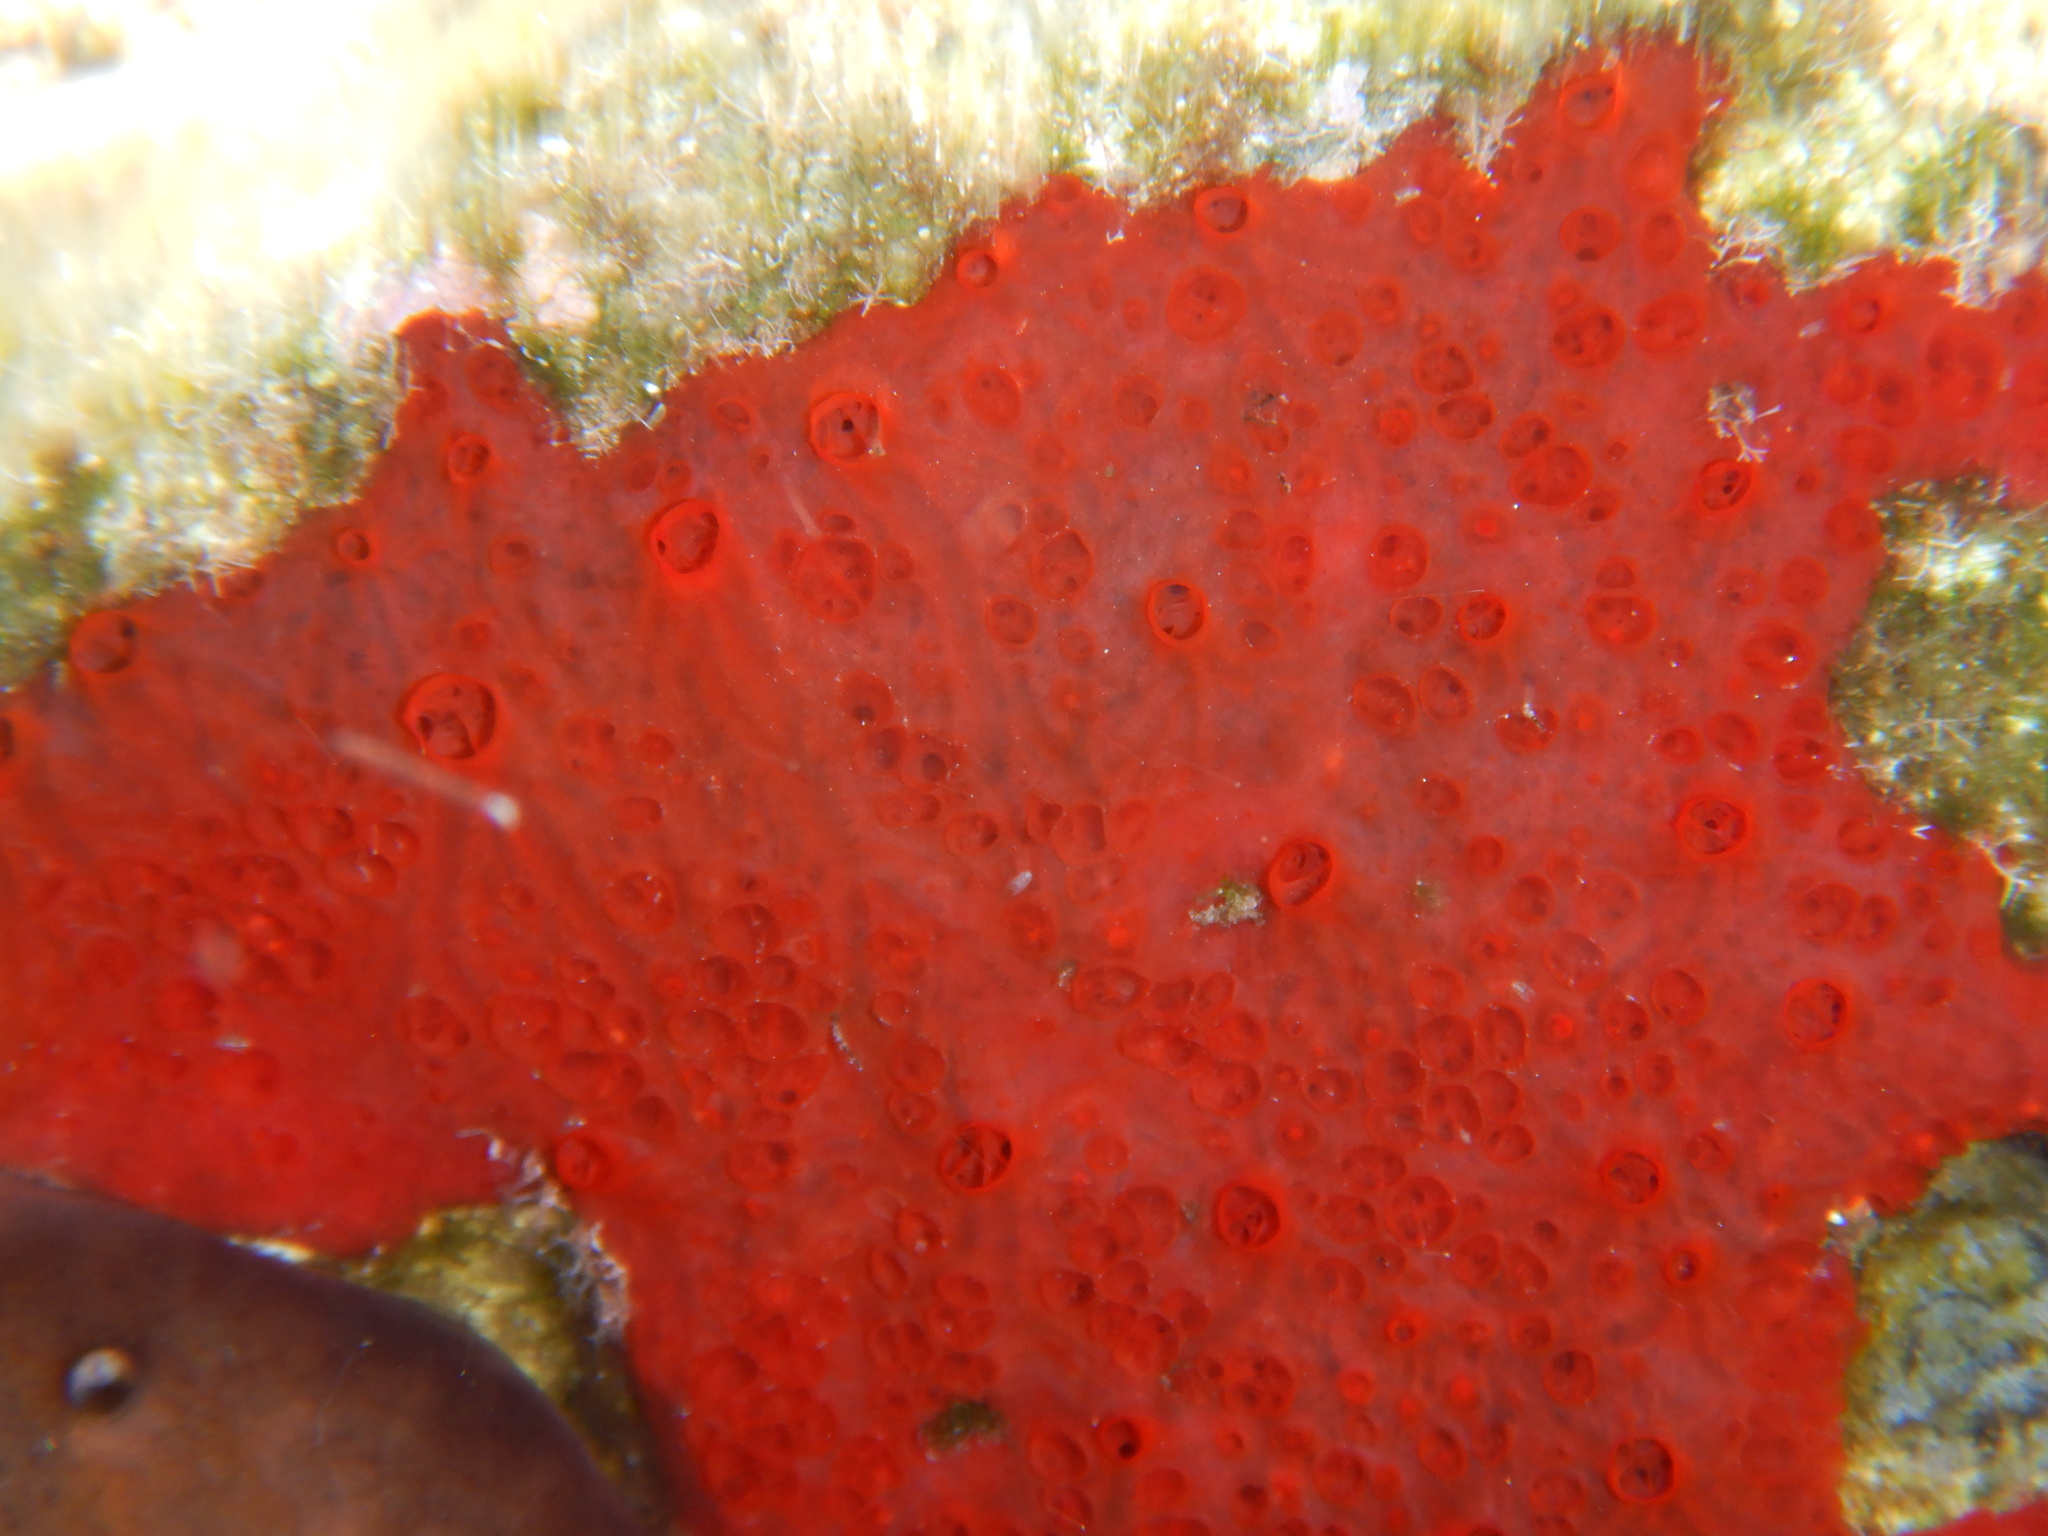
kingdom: Animalia
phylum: Porifera
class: Demospongiae
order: Poecilosclerida
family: Hymedesmiidae
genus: Phorbas
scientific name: Phorbas topsenti
